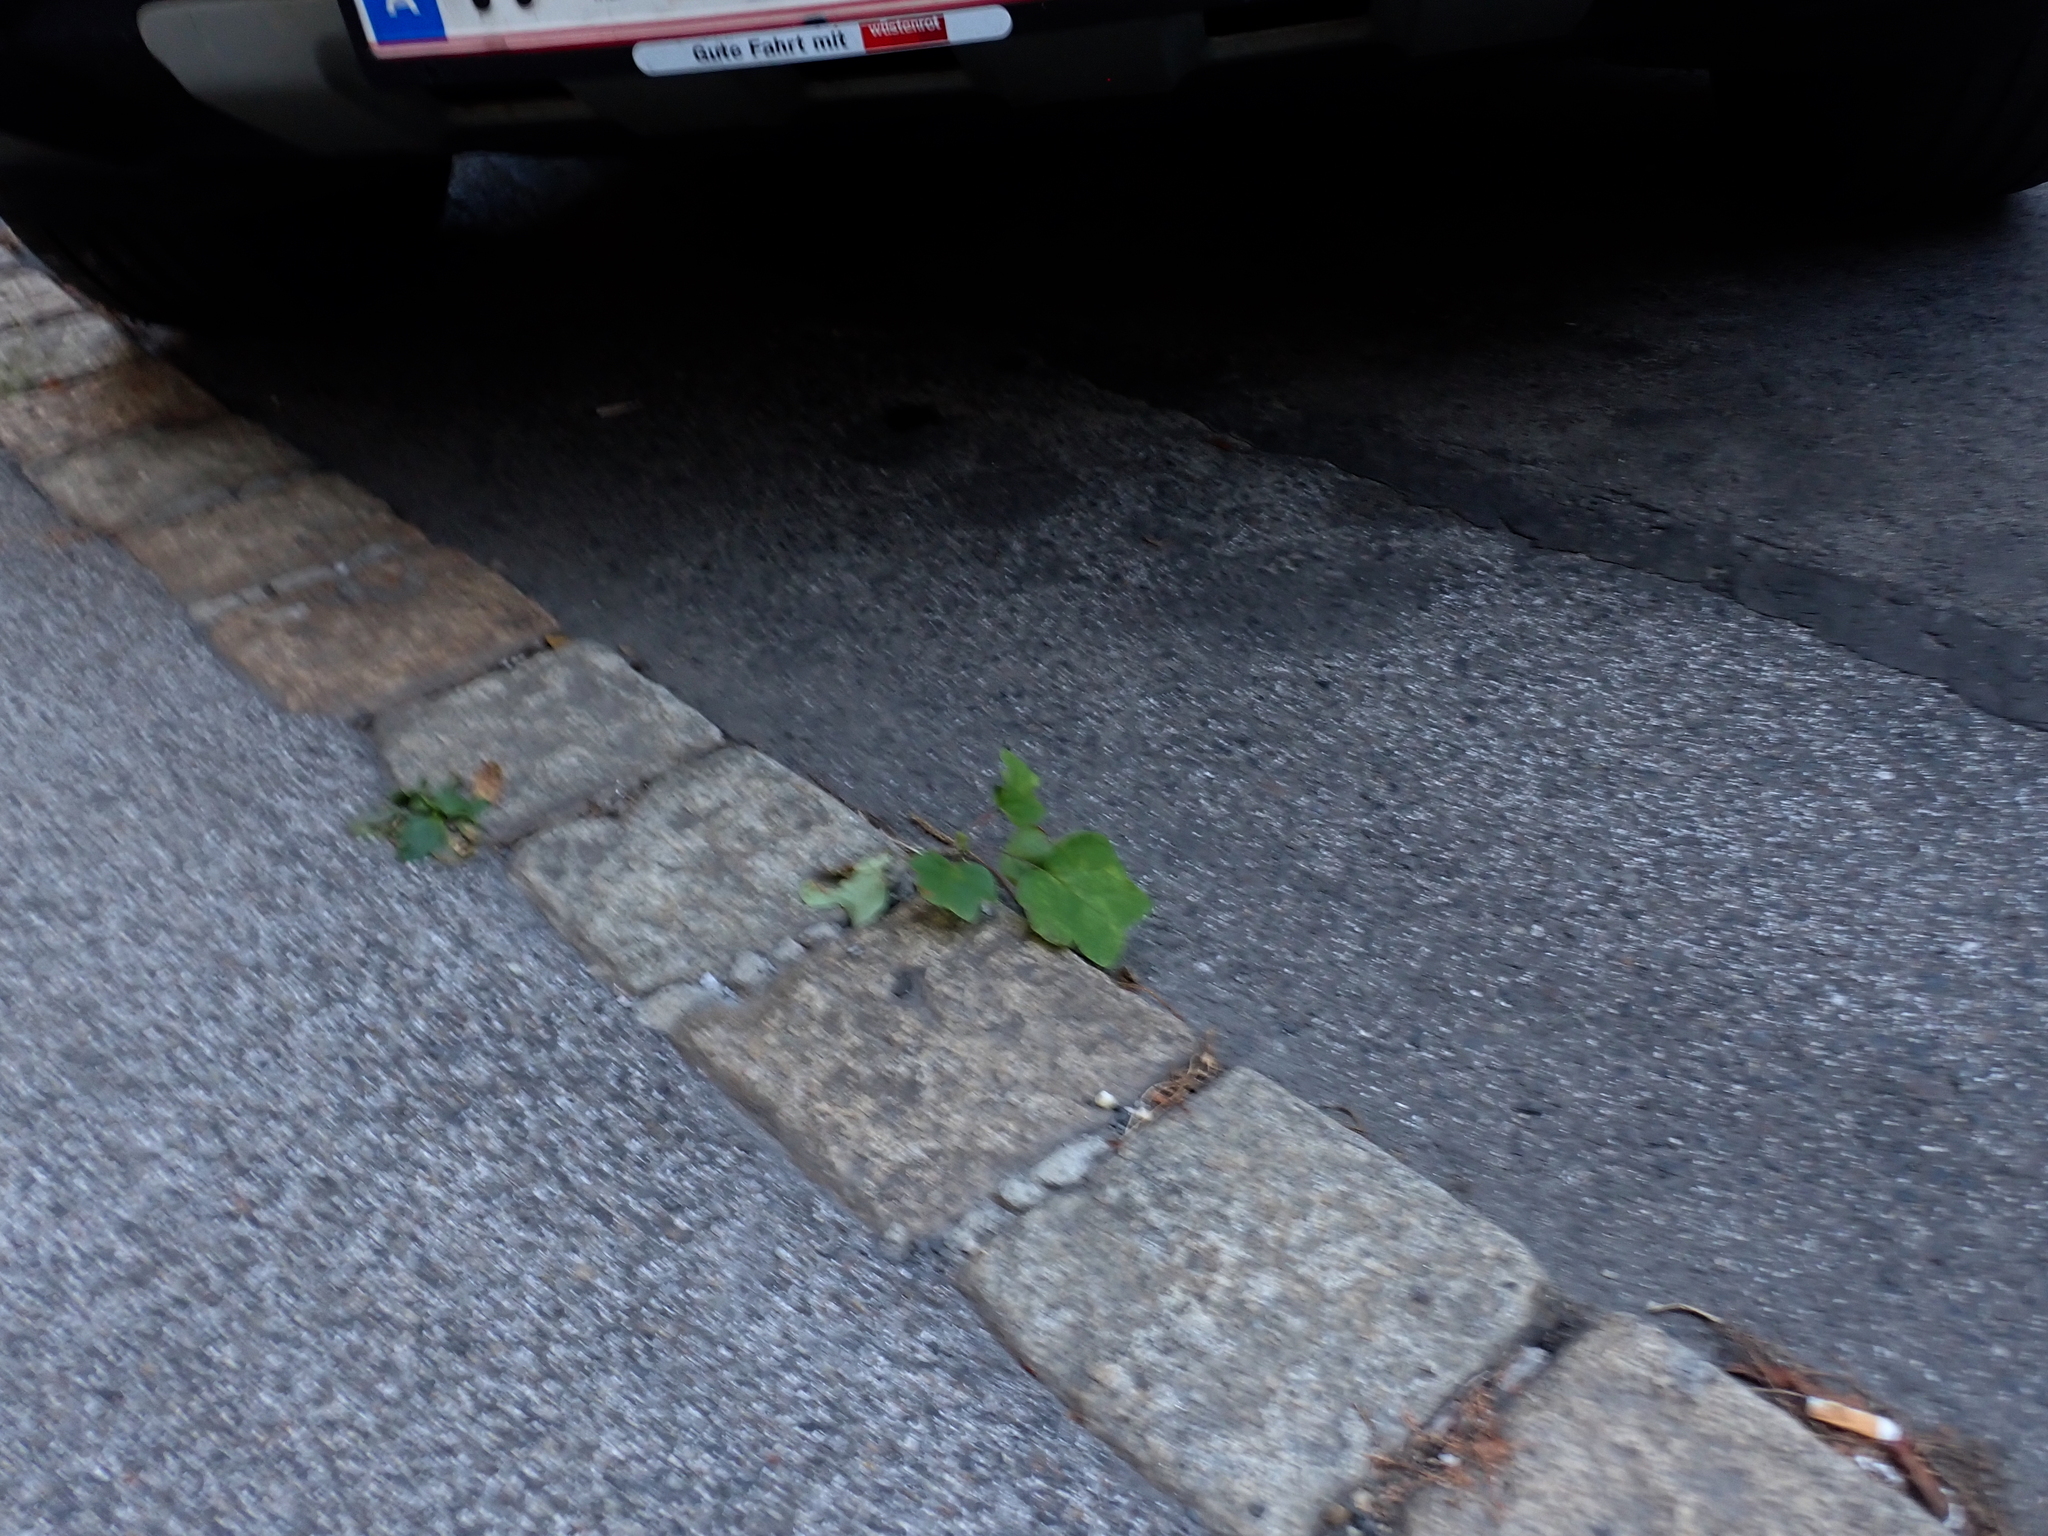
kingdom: Plantae
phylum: Tracheophyta
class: Magnoliopsida
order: Magnoliales
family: Magnoliaceae
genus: Liriodendron
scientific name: Liriodendron tulipifera
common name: Tulip tree
